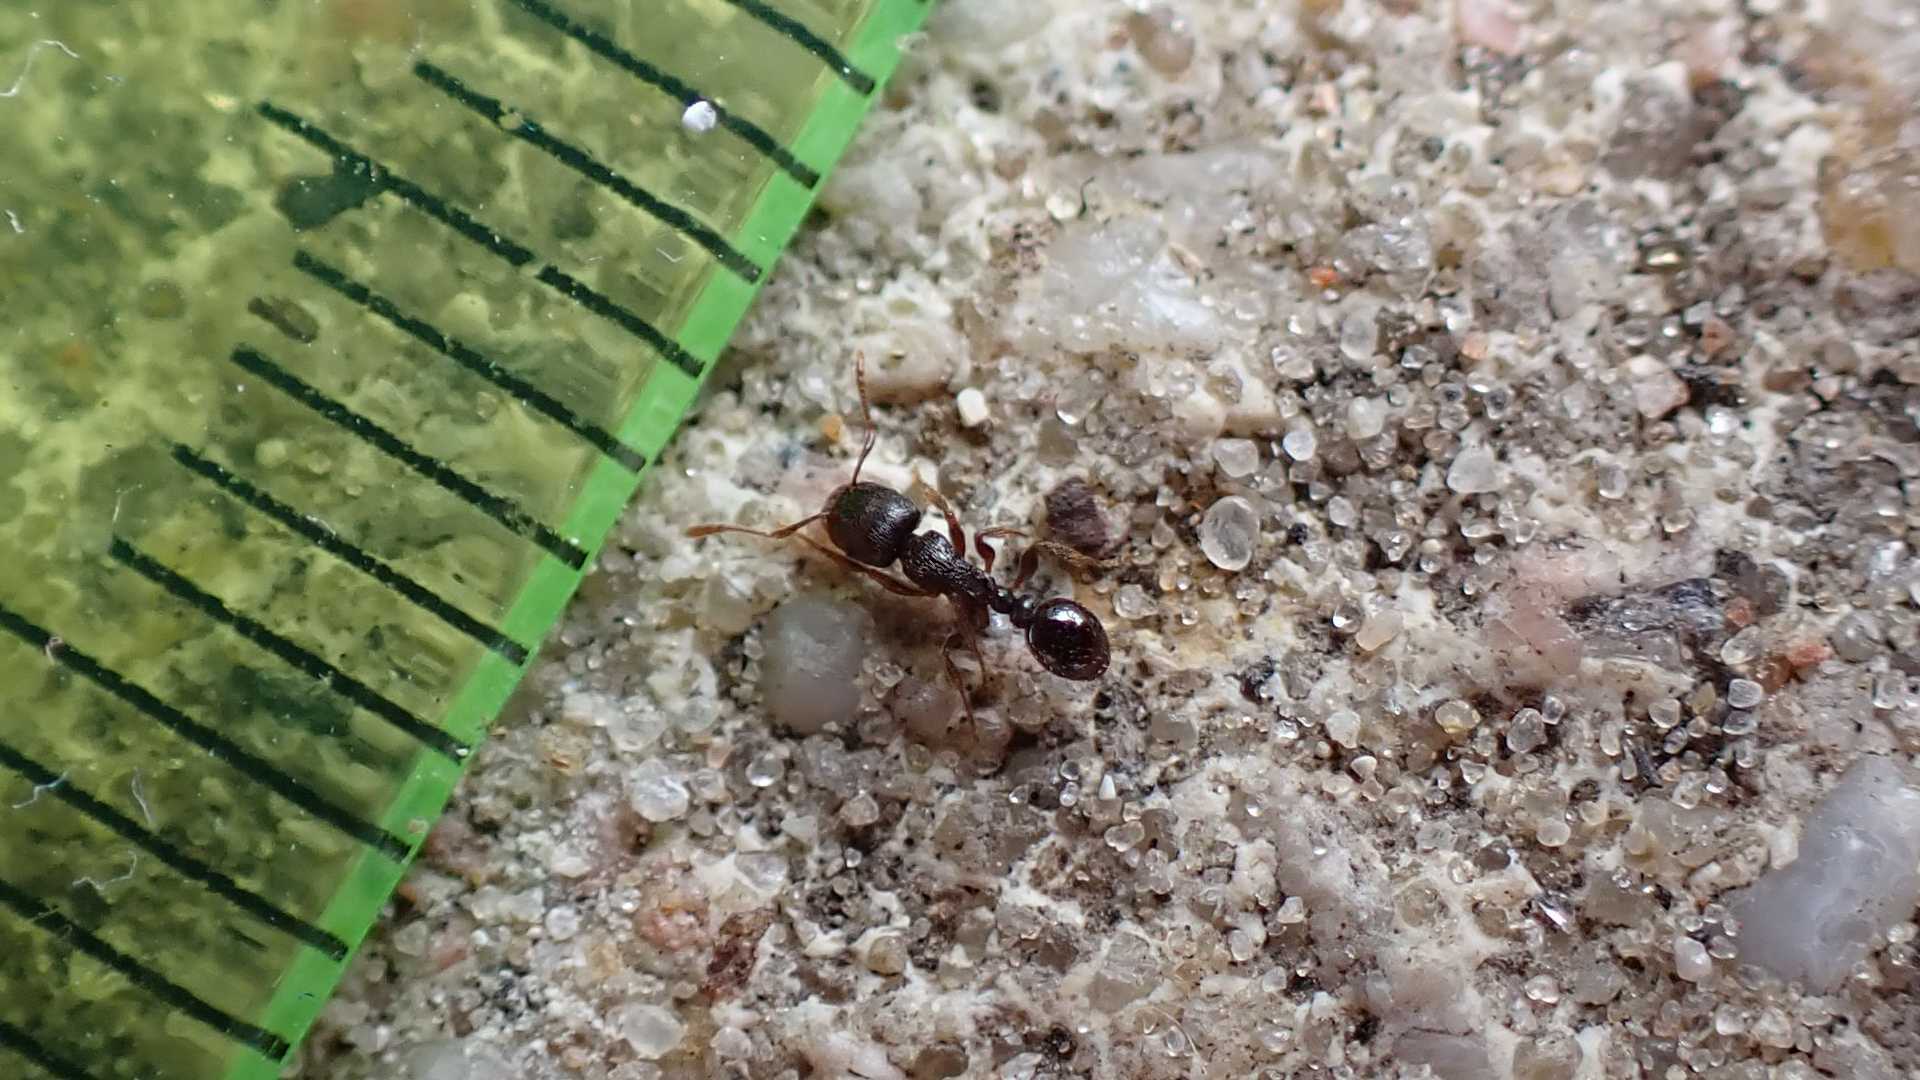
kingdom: Animalia
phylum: Arthropoda
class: Insecta
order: Hymenoptera
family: Formicidae
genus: Tetramorium
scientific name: Tetramorium
